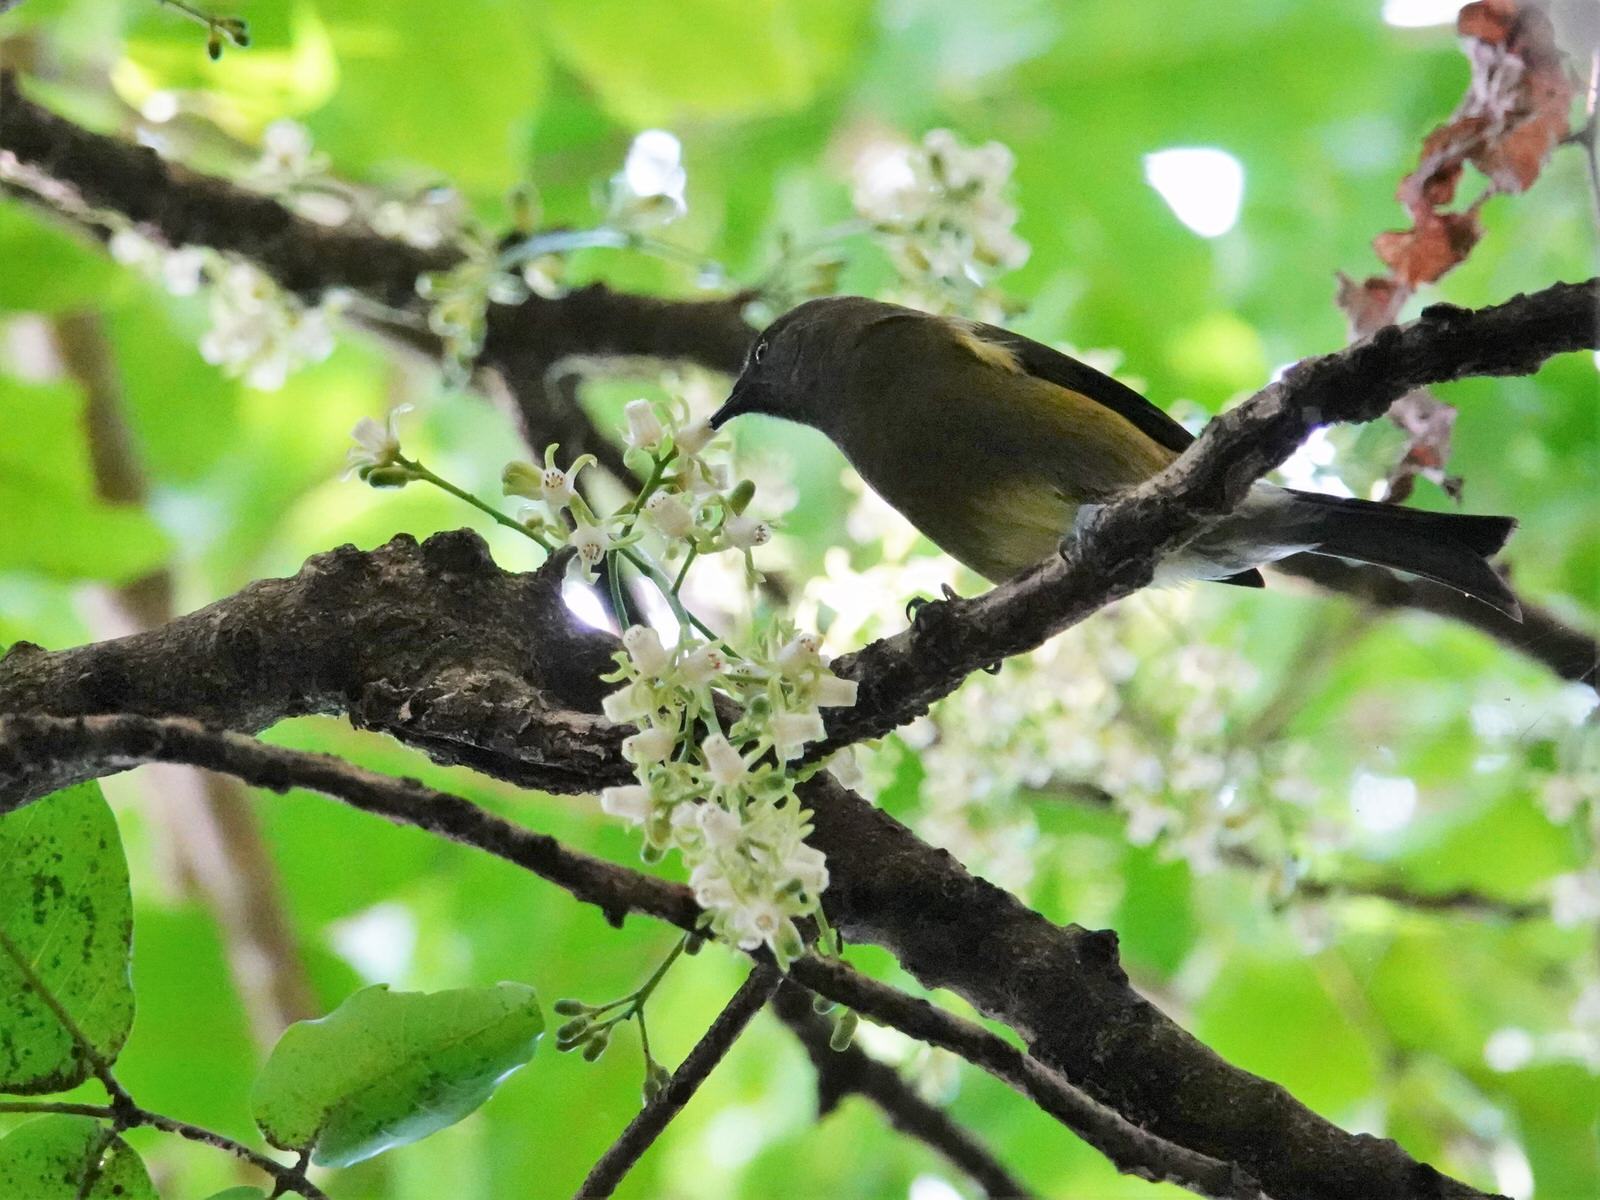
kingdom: Animalia
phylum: Chordata
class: Aves
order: Passeriformes
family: Meliphagidae
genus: Anthornis
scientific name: Anthornis melanura
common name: New zealand bellbird
